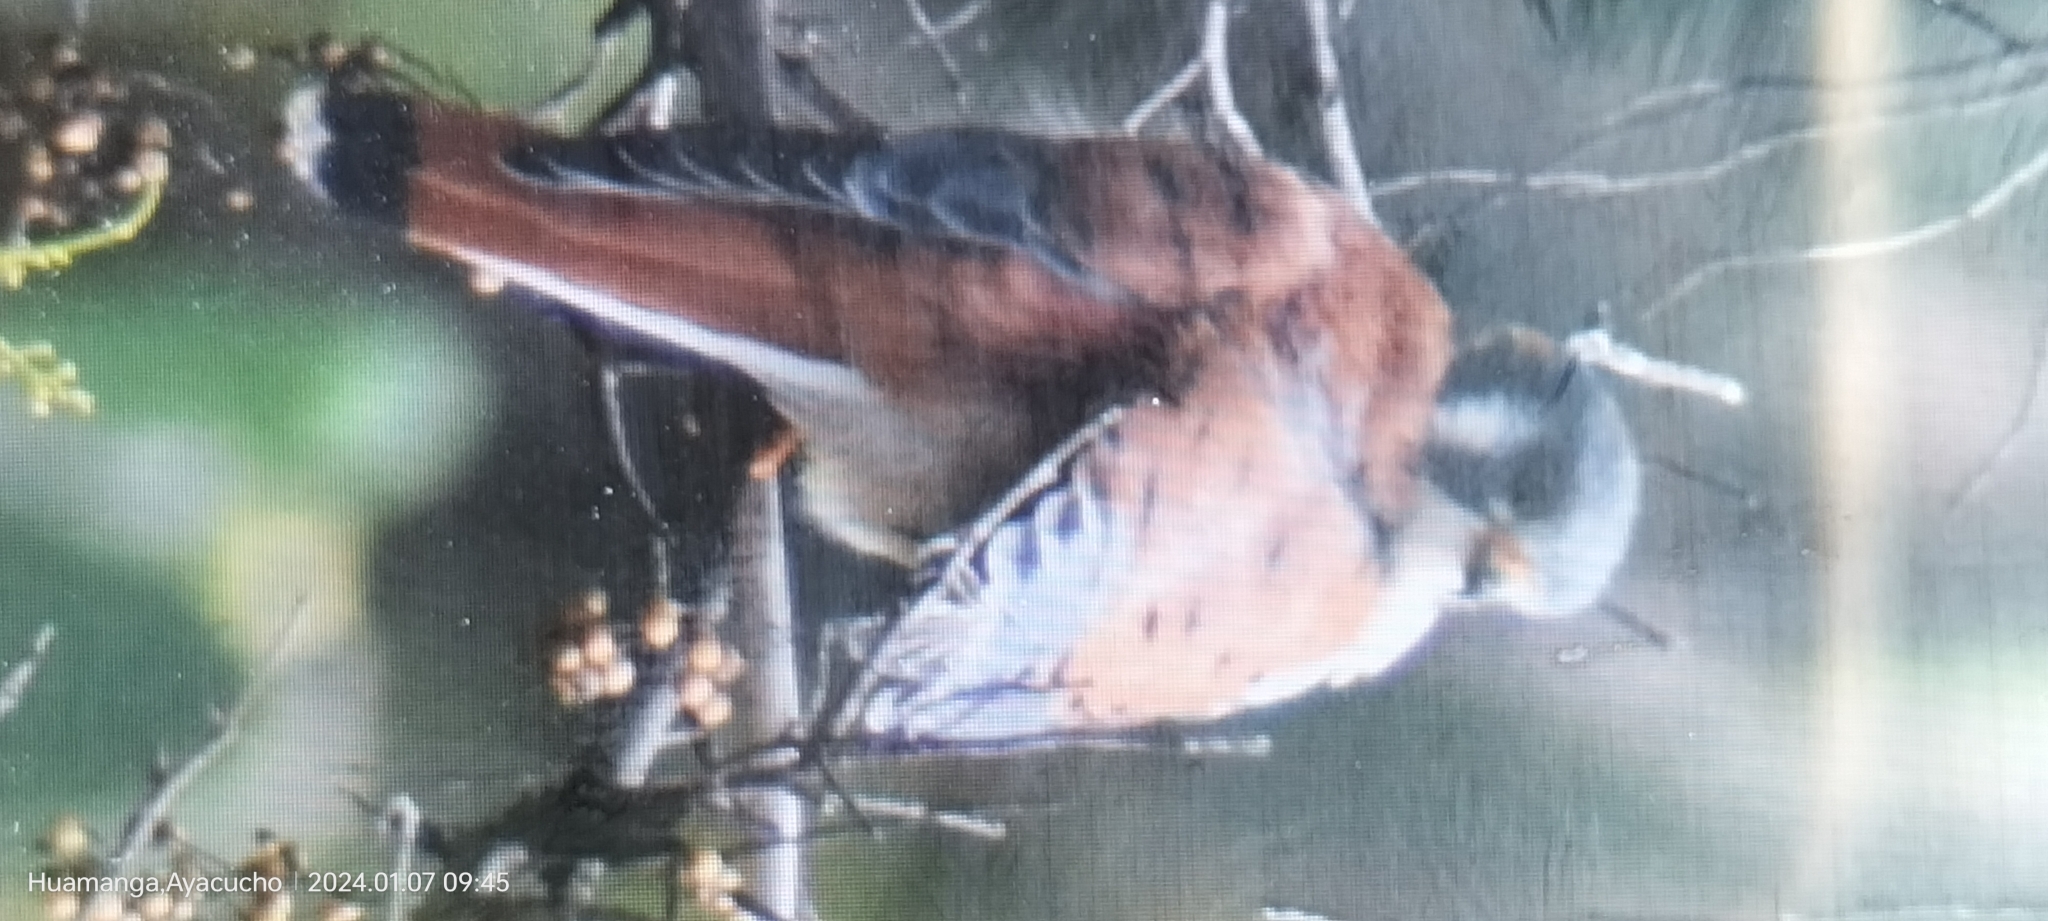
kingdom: Animalia
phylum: Chordata
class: Aves
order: Falconiformes
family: Falconidae
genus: Falco
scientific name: Falco sparverius
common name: American kestrel
